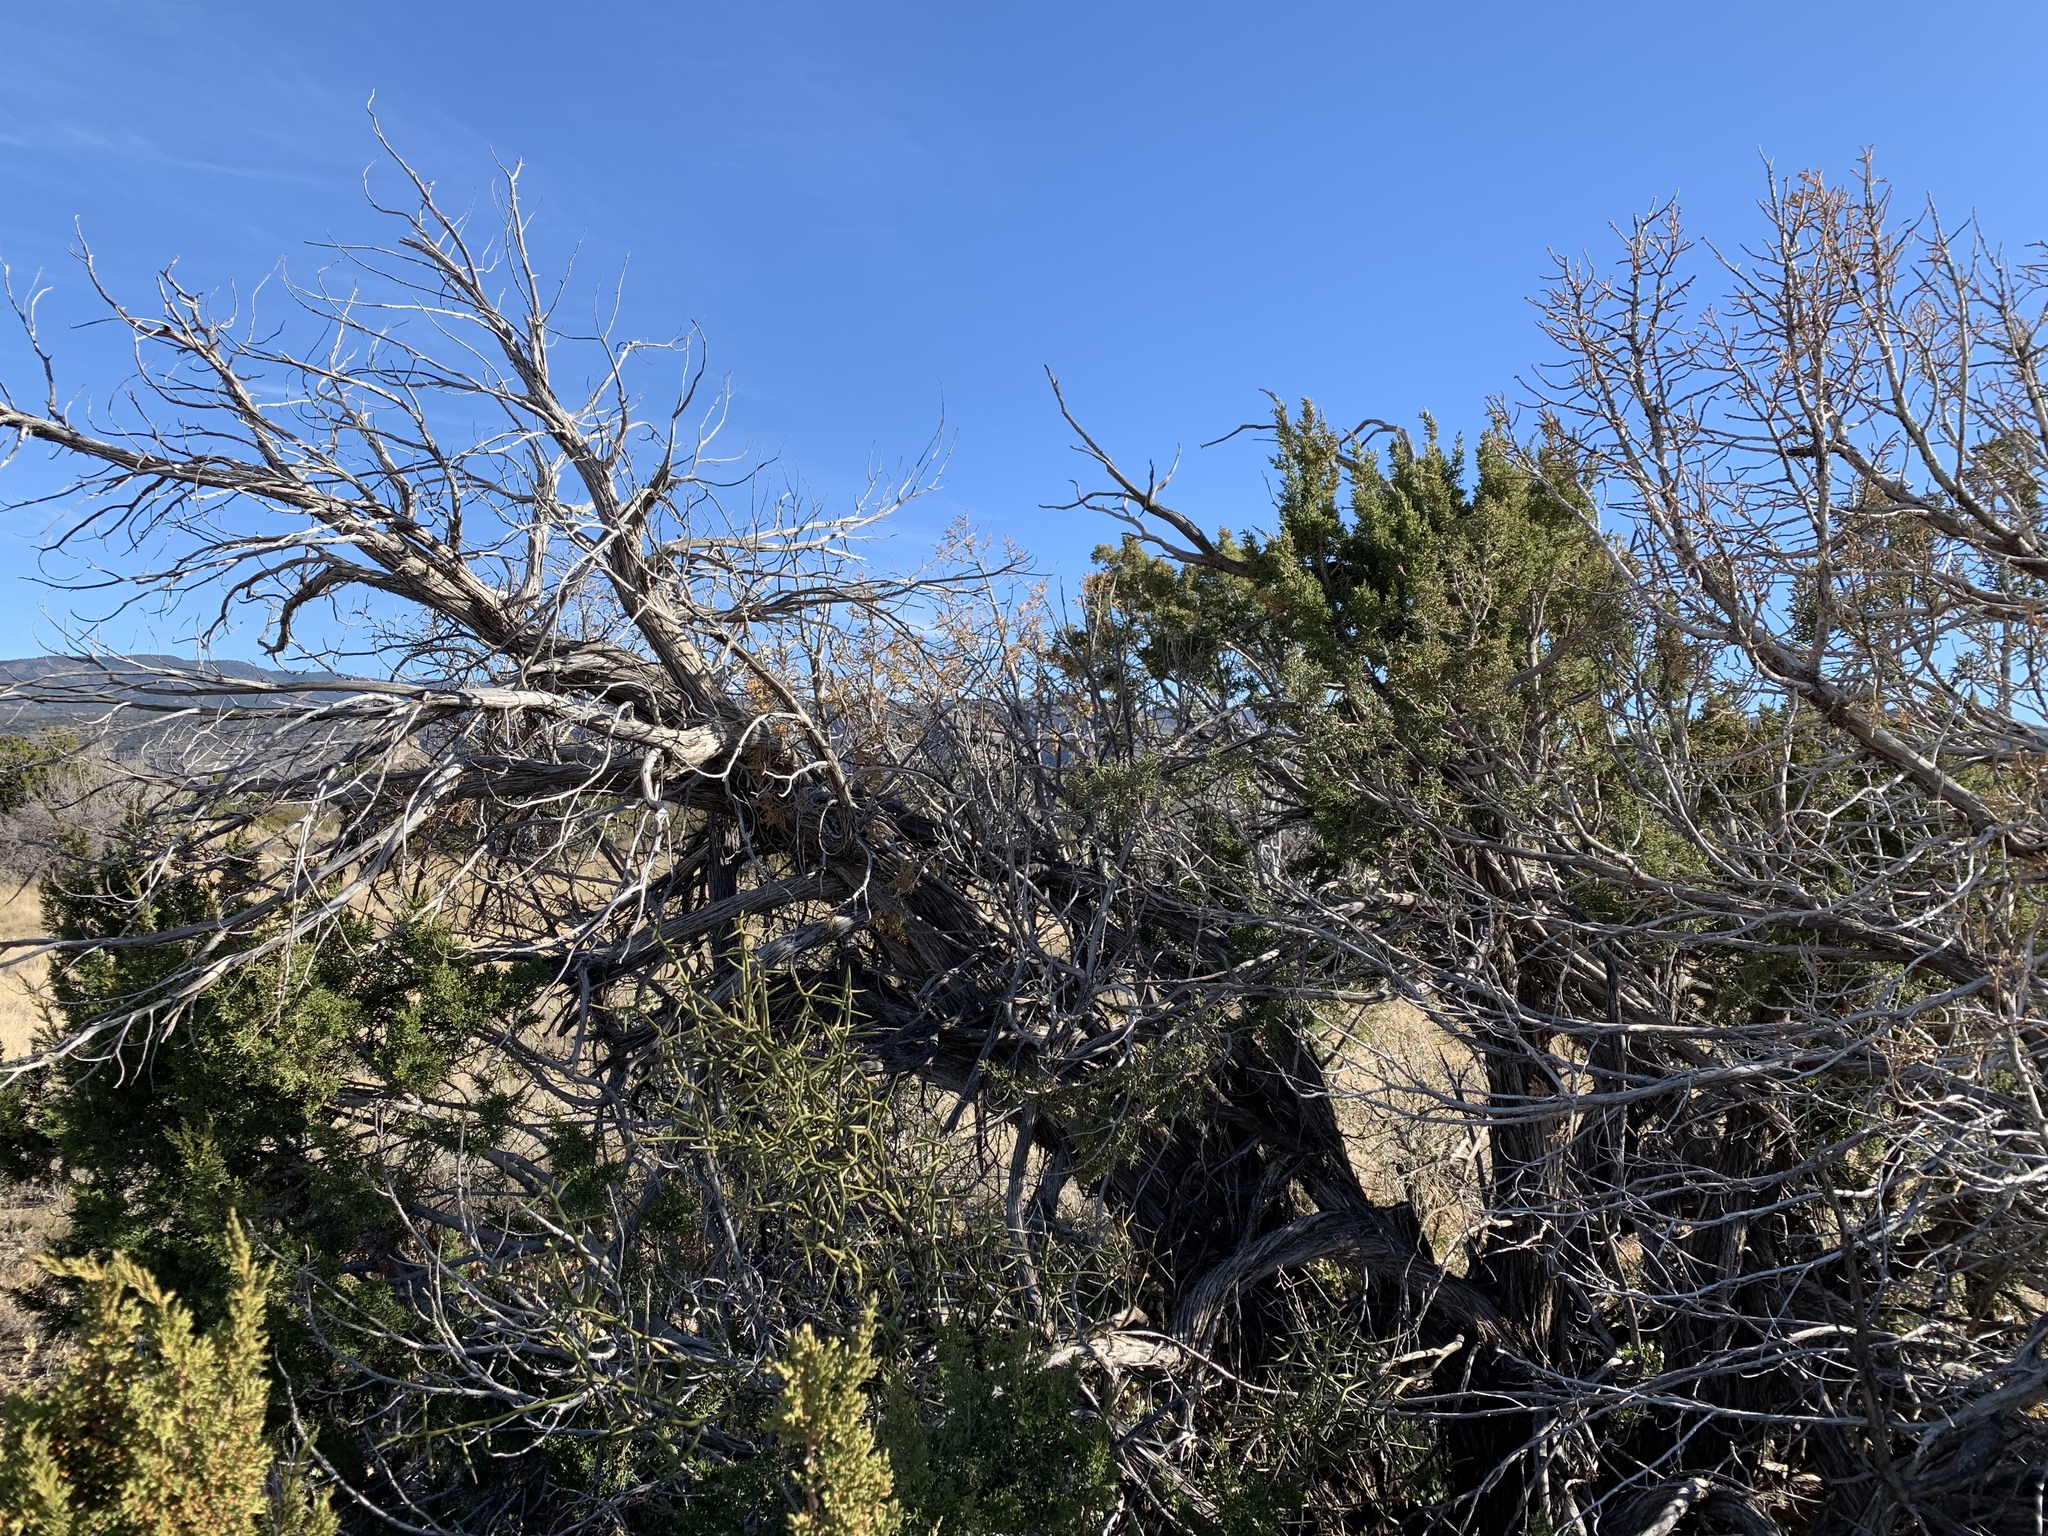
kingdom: Plantae
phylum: Tracheophyta
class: Pinopsida
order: Pinales
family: Cupressaceae
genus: Juniperus
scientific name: Juniperus monosperma
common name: One-seed juniper
